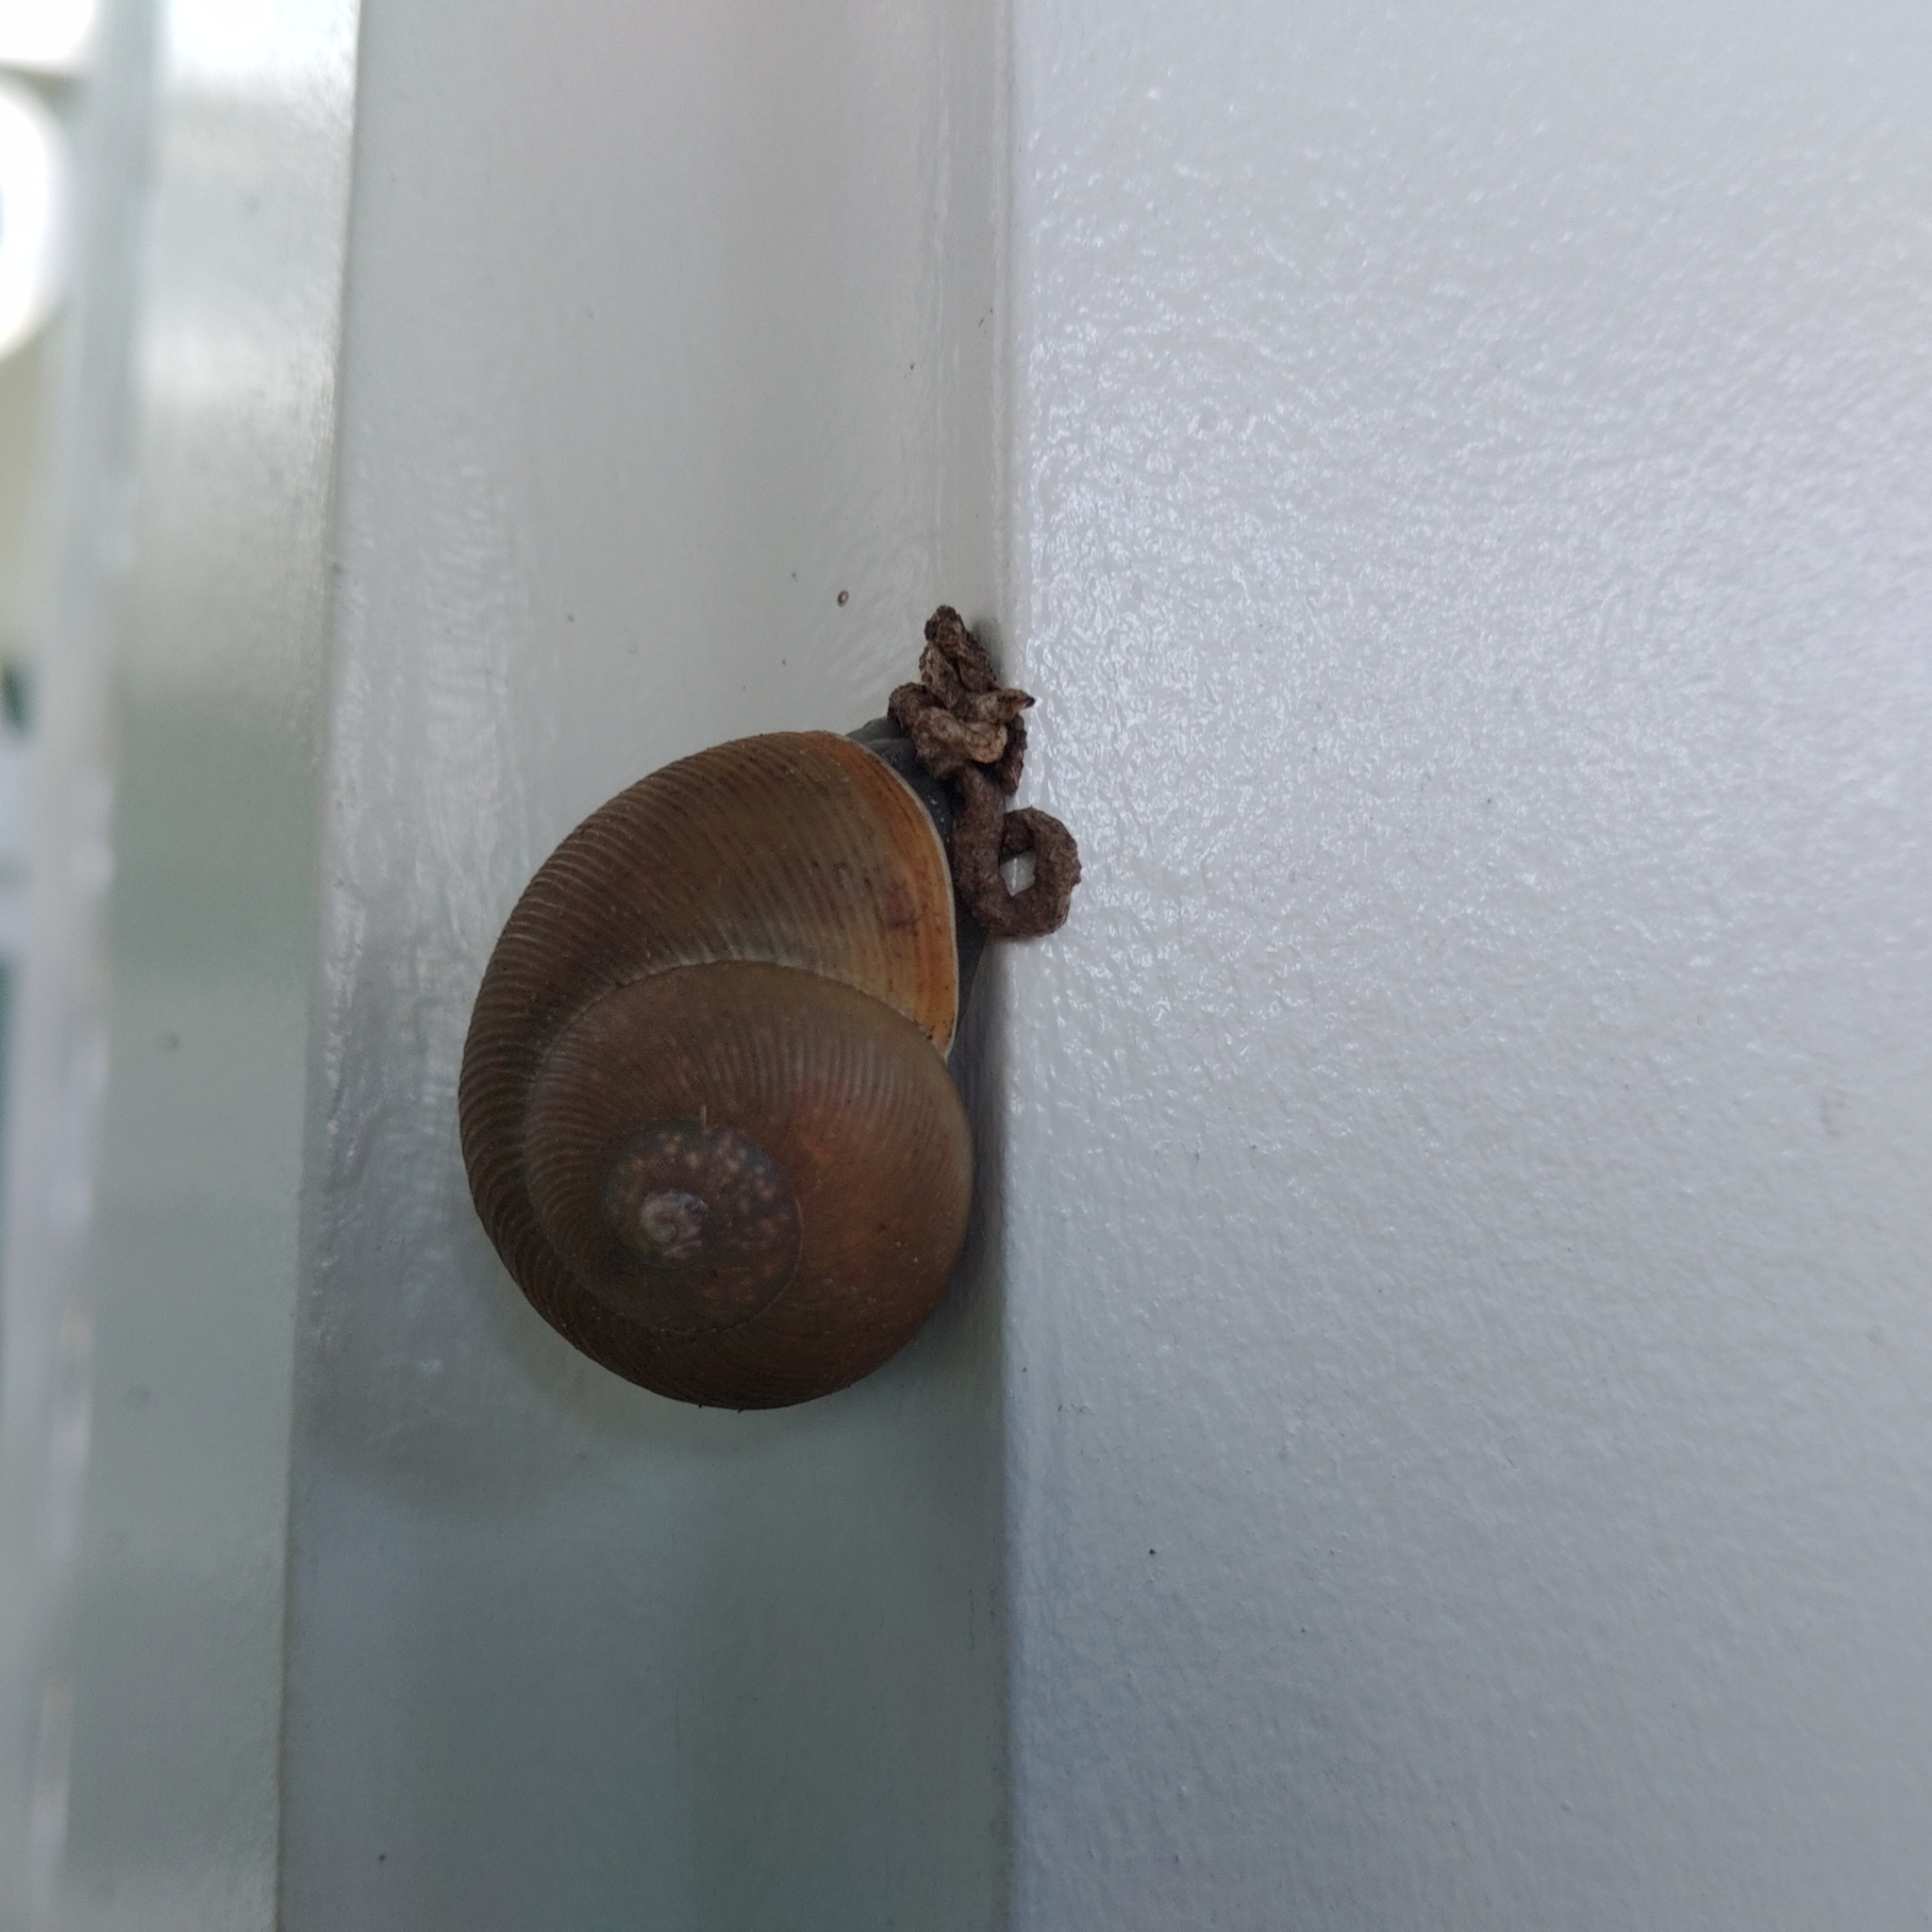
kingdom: Animalia
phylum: Mollusca
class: Gastropoda
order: Stylommatophora
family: Zachrysiidae
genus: Zachrysia
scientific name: Zachrysia provisoria
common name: Garden zachrysia
